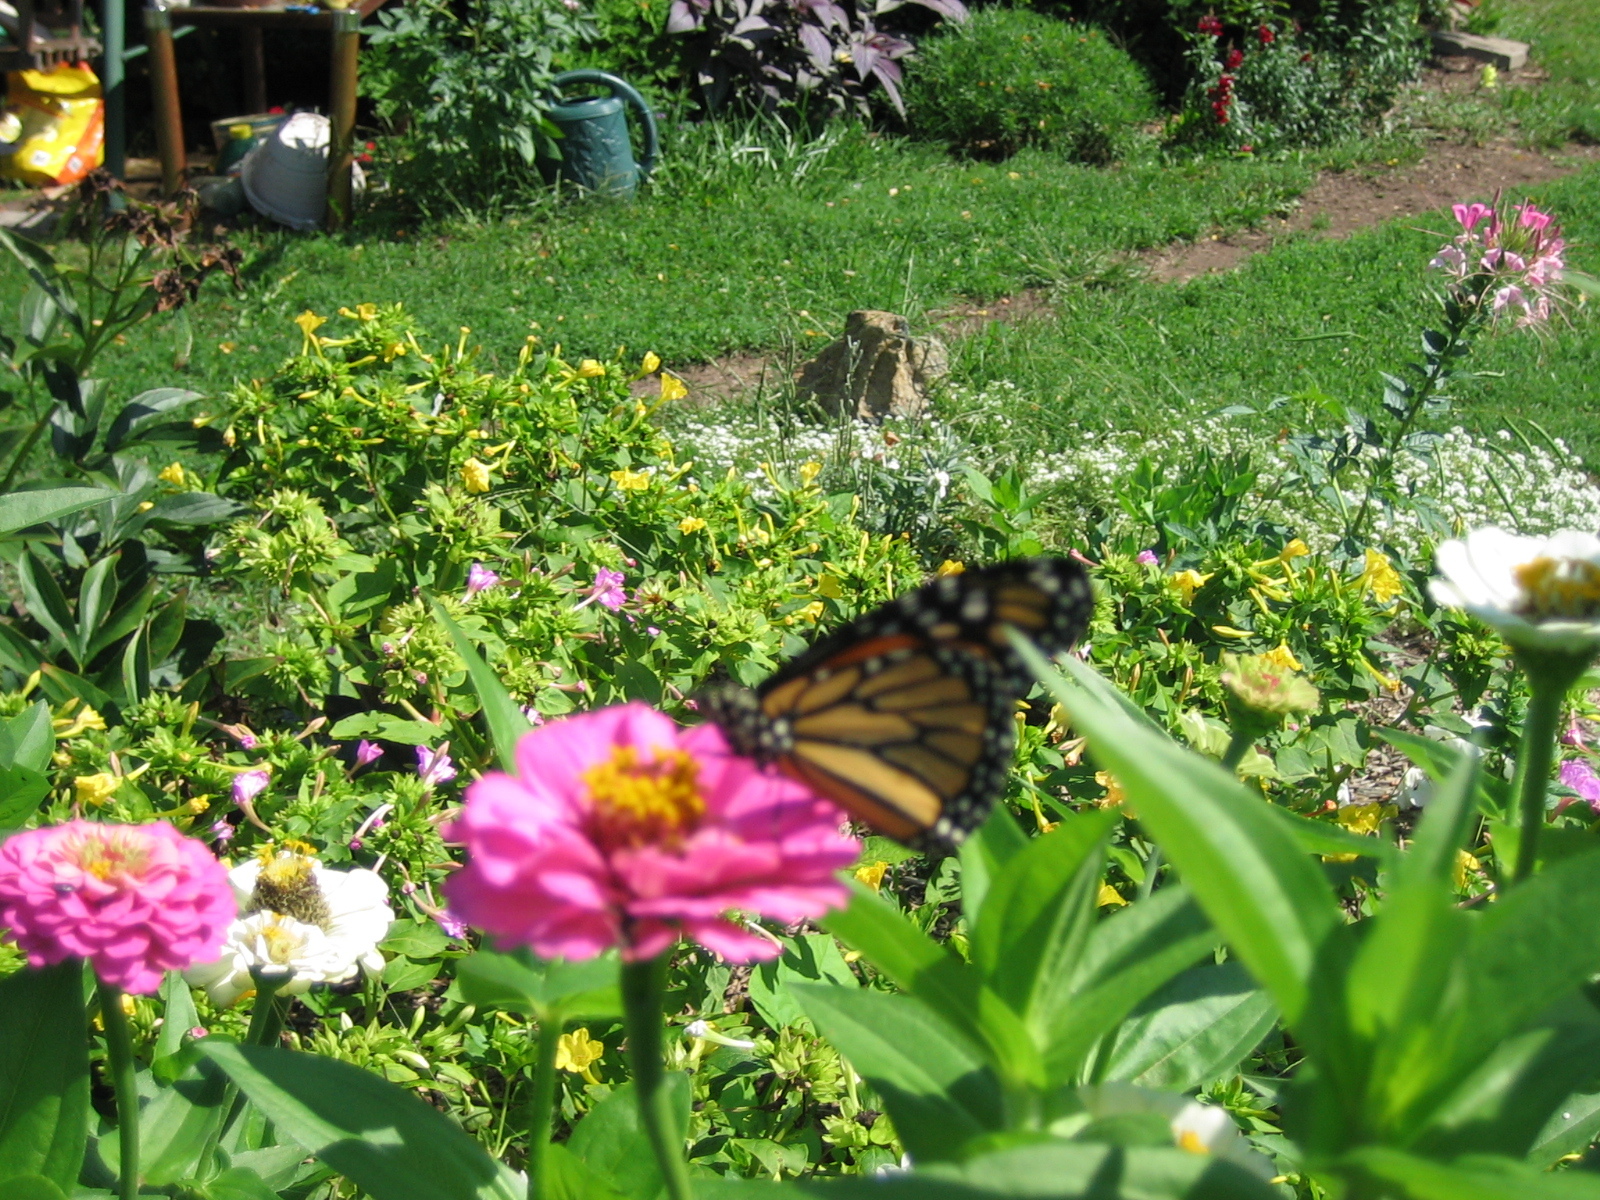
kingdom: Animalia
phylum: Arthropoda
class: Insecta
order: Lepidoptera
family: Nymphalidae
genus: Danaus
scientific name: Danaus plexippus
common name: Monarch
